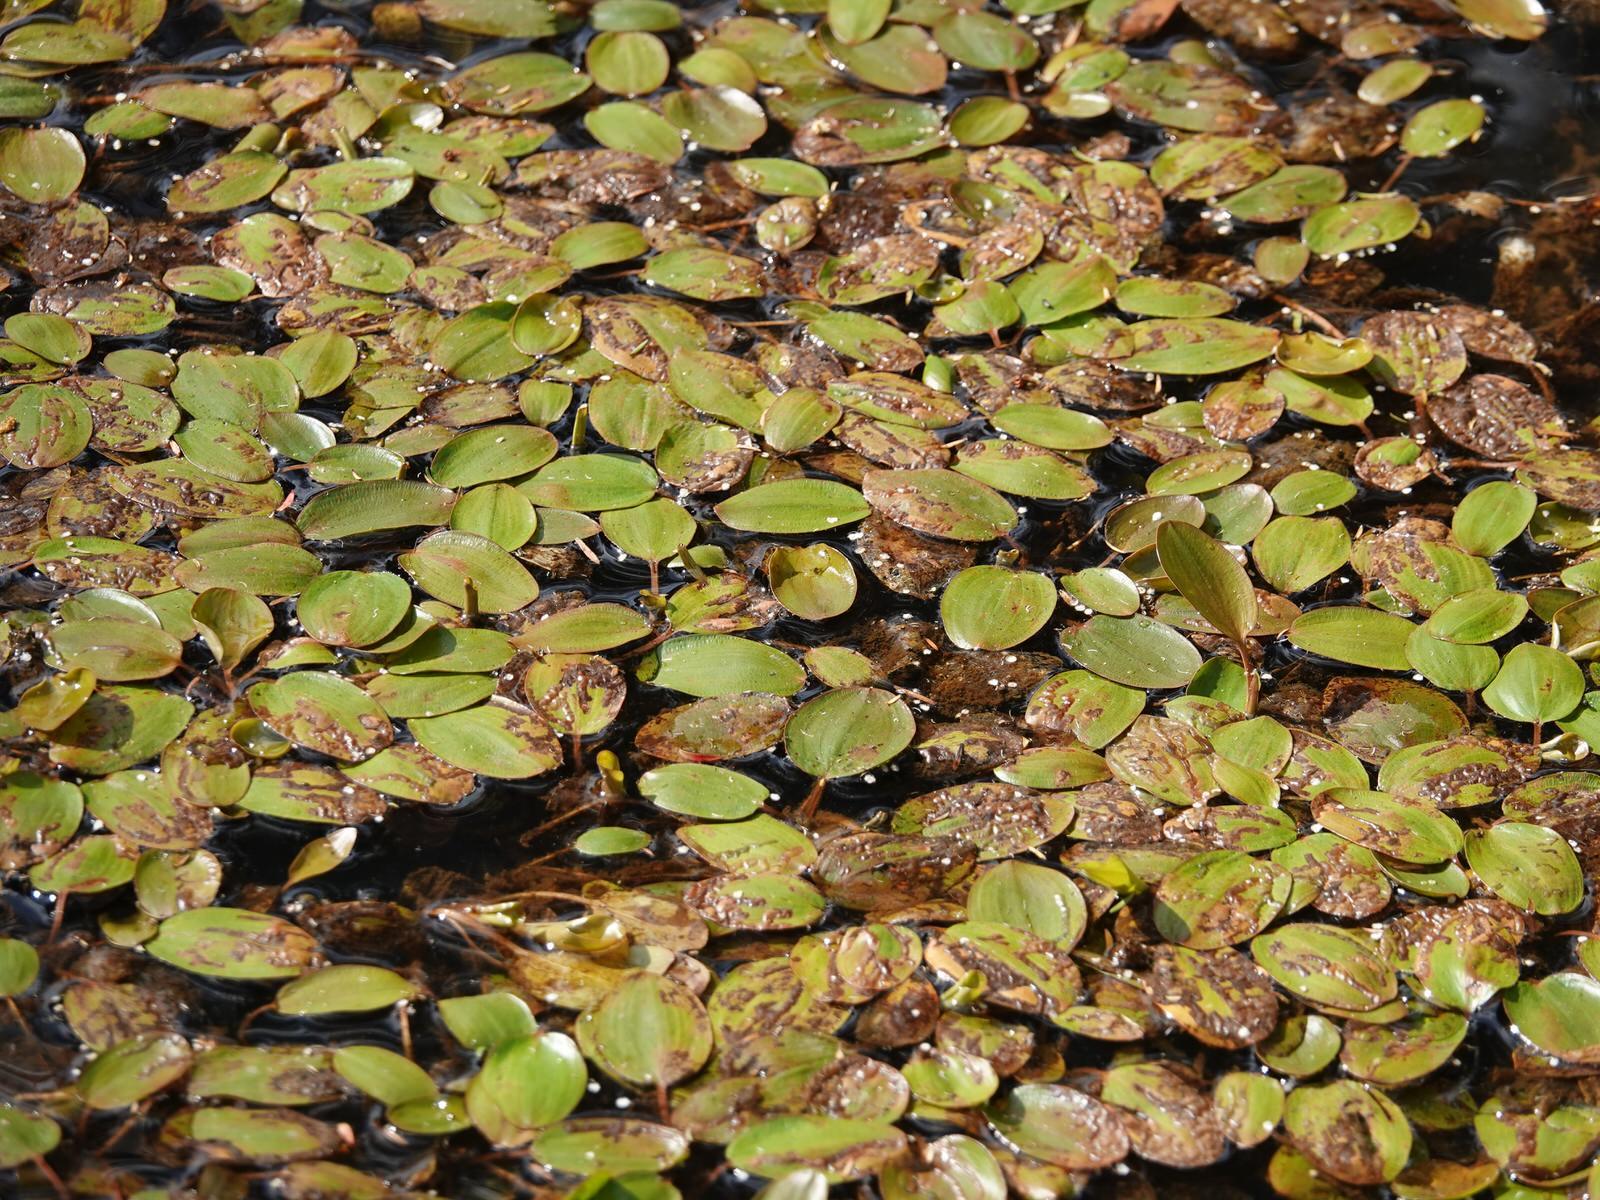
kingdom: Plantae
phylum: Tracheophyta
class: Liliopsida
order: Alismatales
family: Potamogetonaceae
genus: Potamogeton
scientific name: Potamogeton cheesemanii
